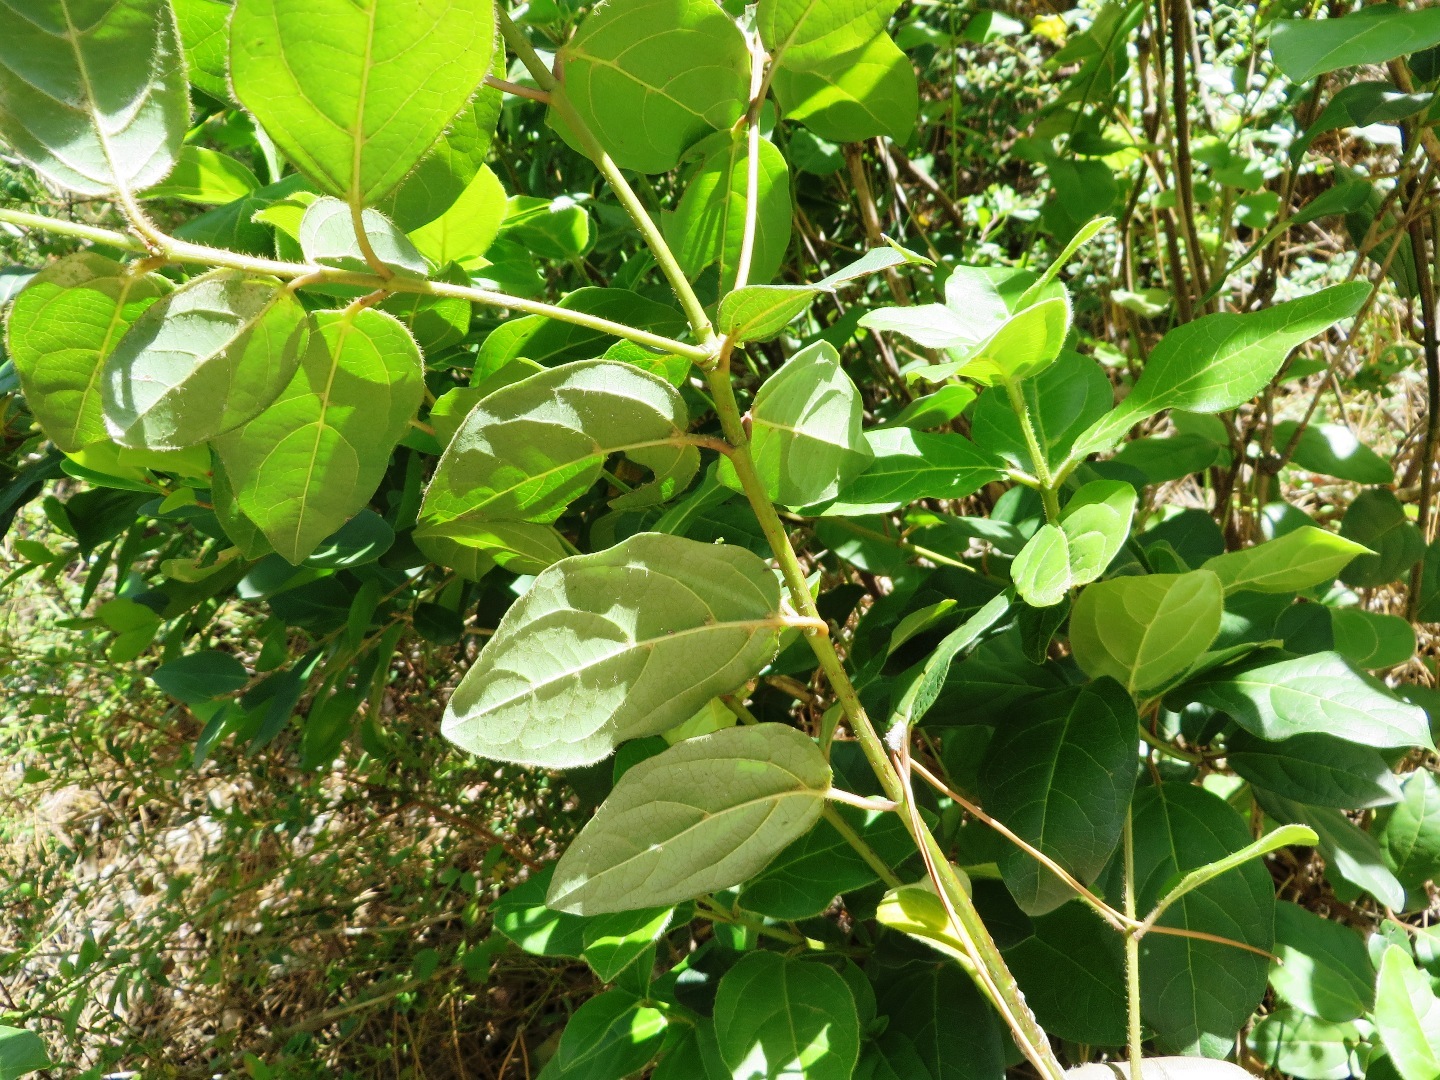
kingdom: Plantae
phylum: Tracheophyta
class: Magnoliopsida
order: Dipsacales
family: Viburnaceae
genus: Viburnum
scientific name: Viburnum tinus
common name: Laurustinus
